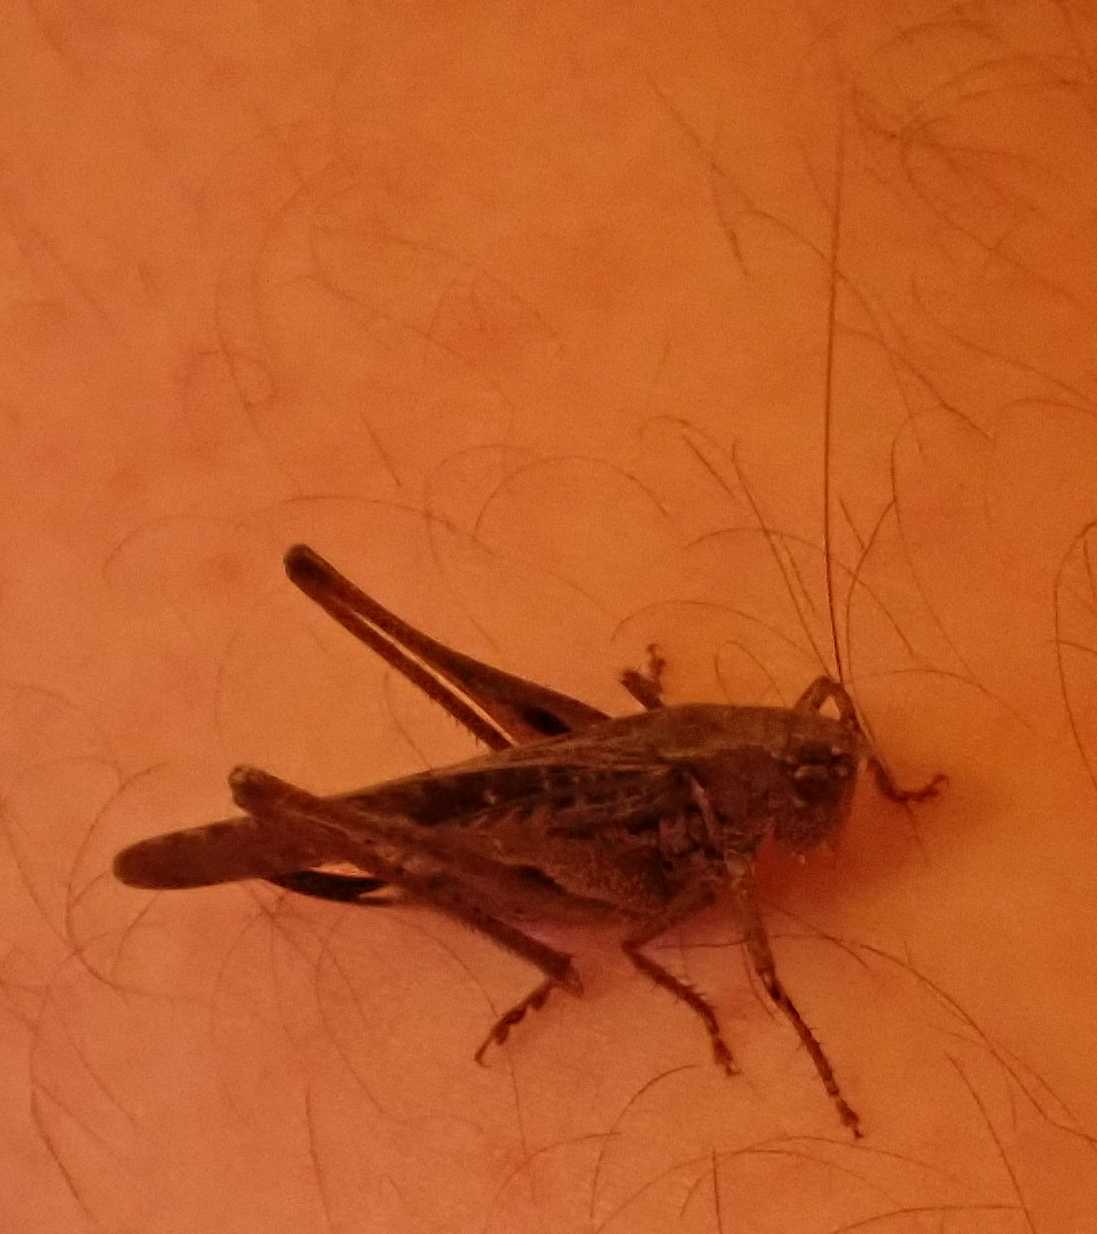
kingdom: Animalia
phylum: Arthropoda
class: Insecta
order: Orthoptera
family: Tettigoniidae
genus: Platycleis
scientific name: Platycleis albopunctata
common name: Grey bush-cricket
